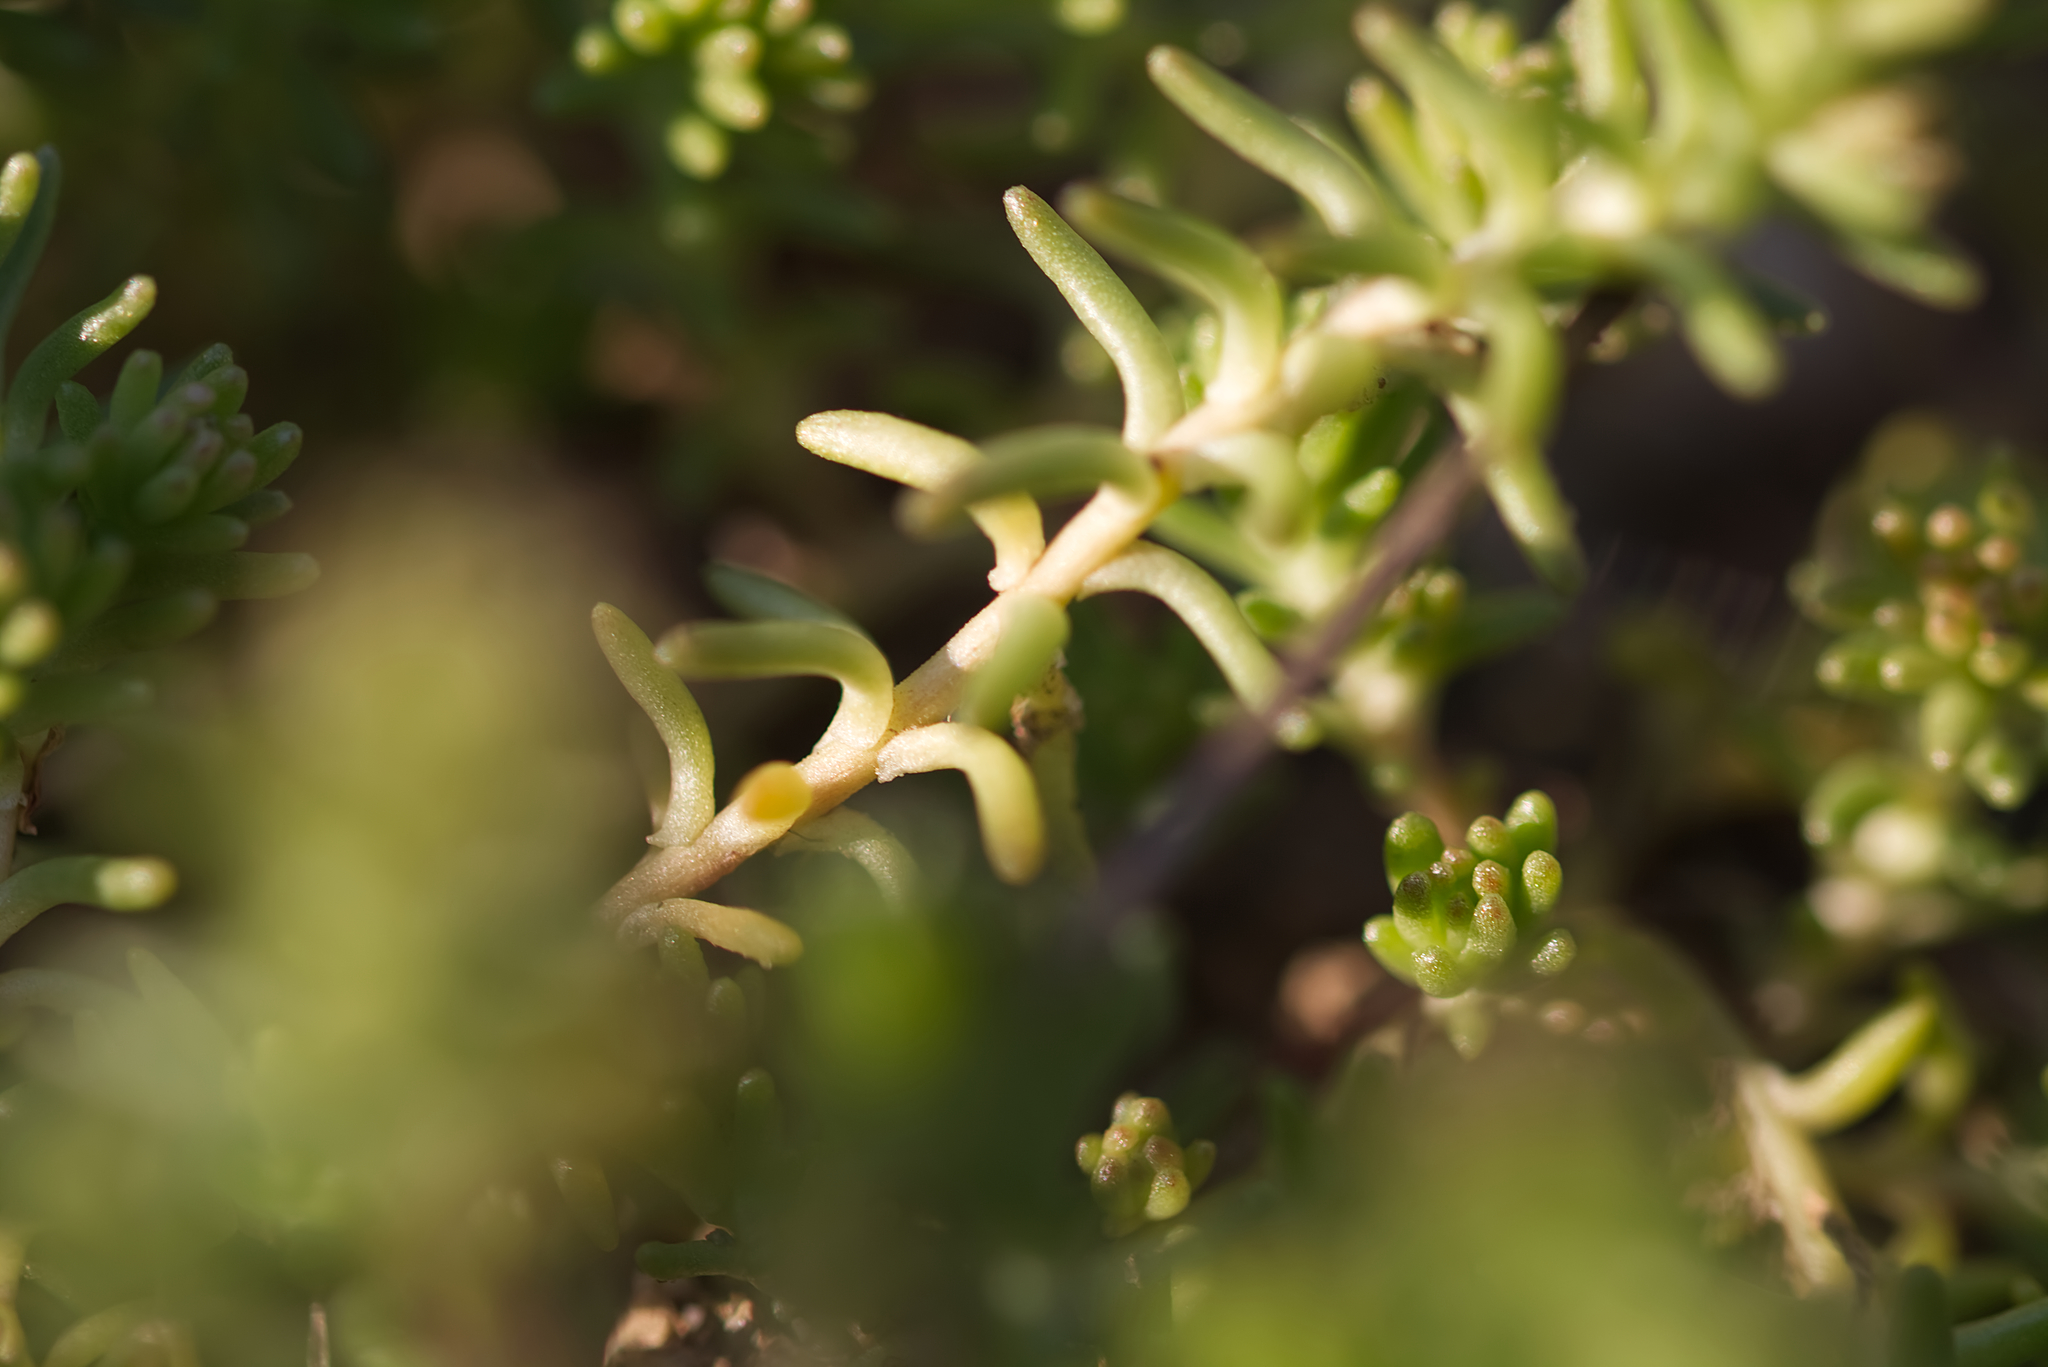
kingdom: Plantae
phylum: Tracheophyta
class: Magnoliopsida
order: Saxifragales
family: Crassulaceae
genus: Sedum
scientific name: Sedum sexangulare
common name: Tasteless stonecrop
